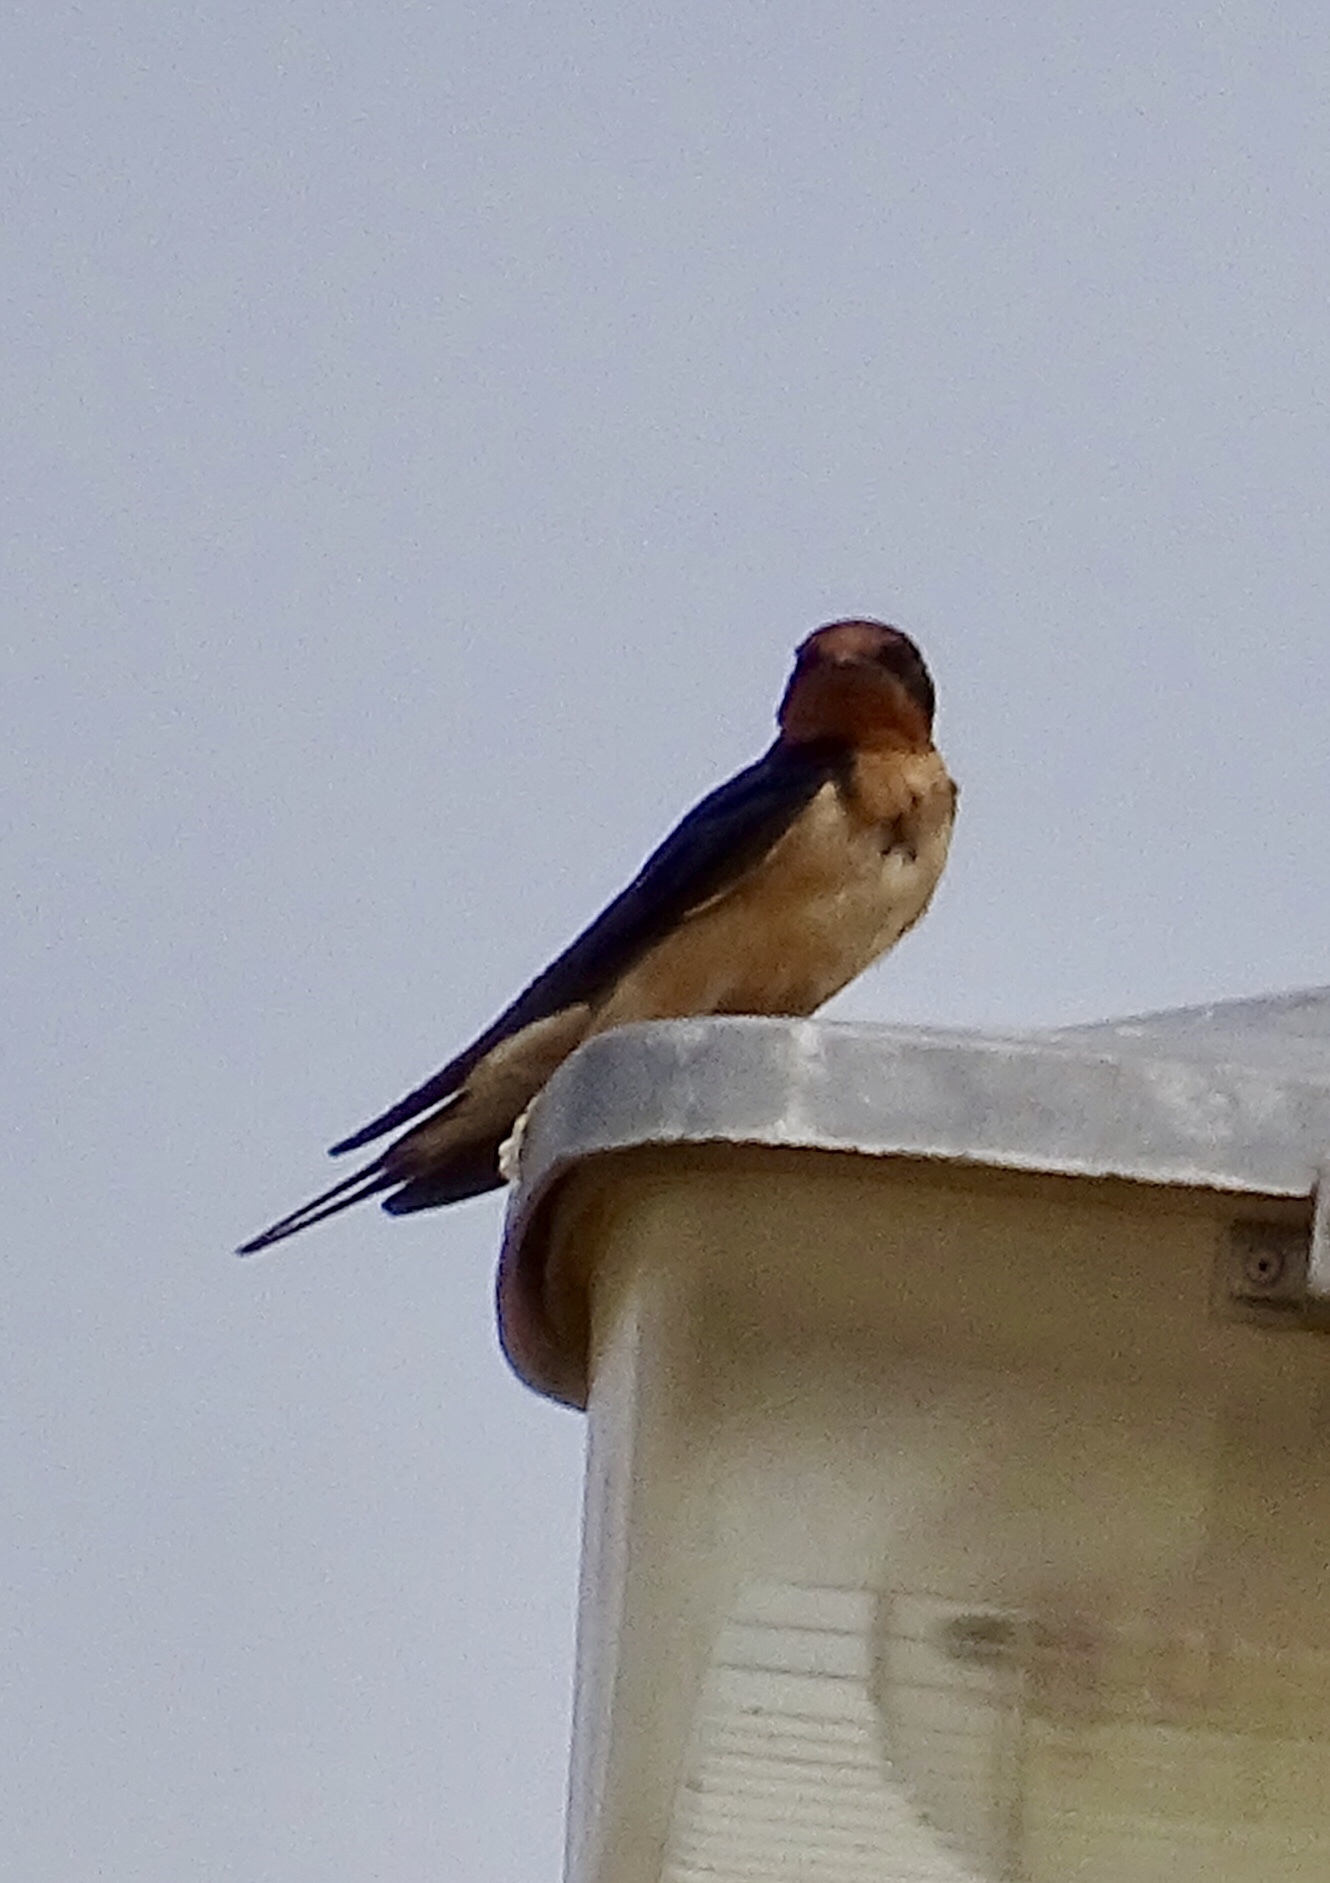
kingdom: Animalia
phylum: Chordata
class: Aves
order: Passeriformes
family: Hirundinidae
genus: Hirundo
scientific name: Hirundo rustica
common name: Barn swallow
